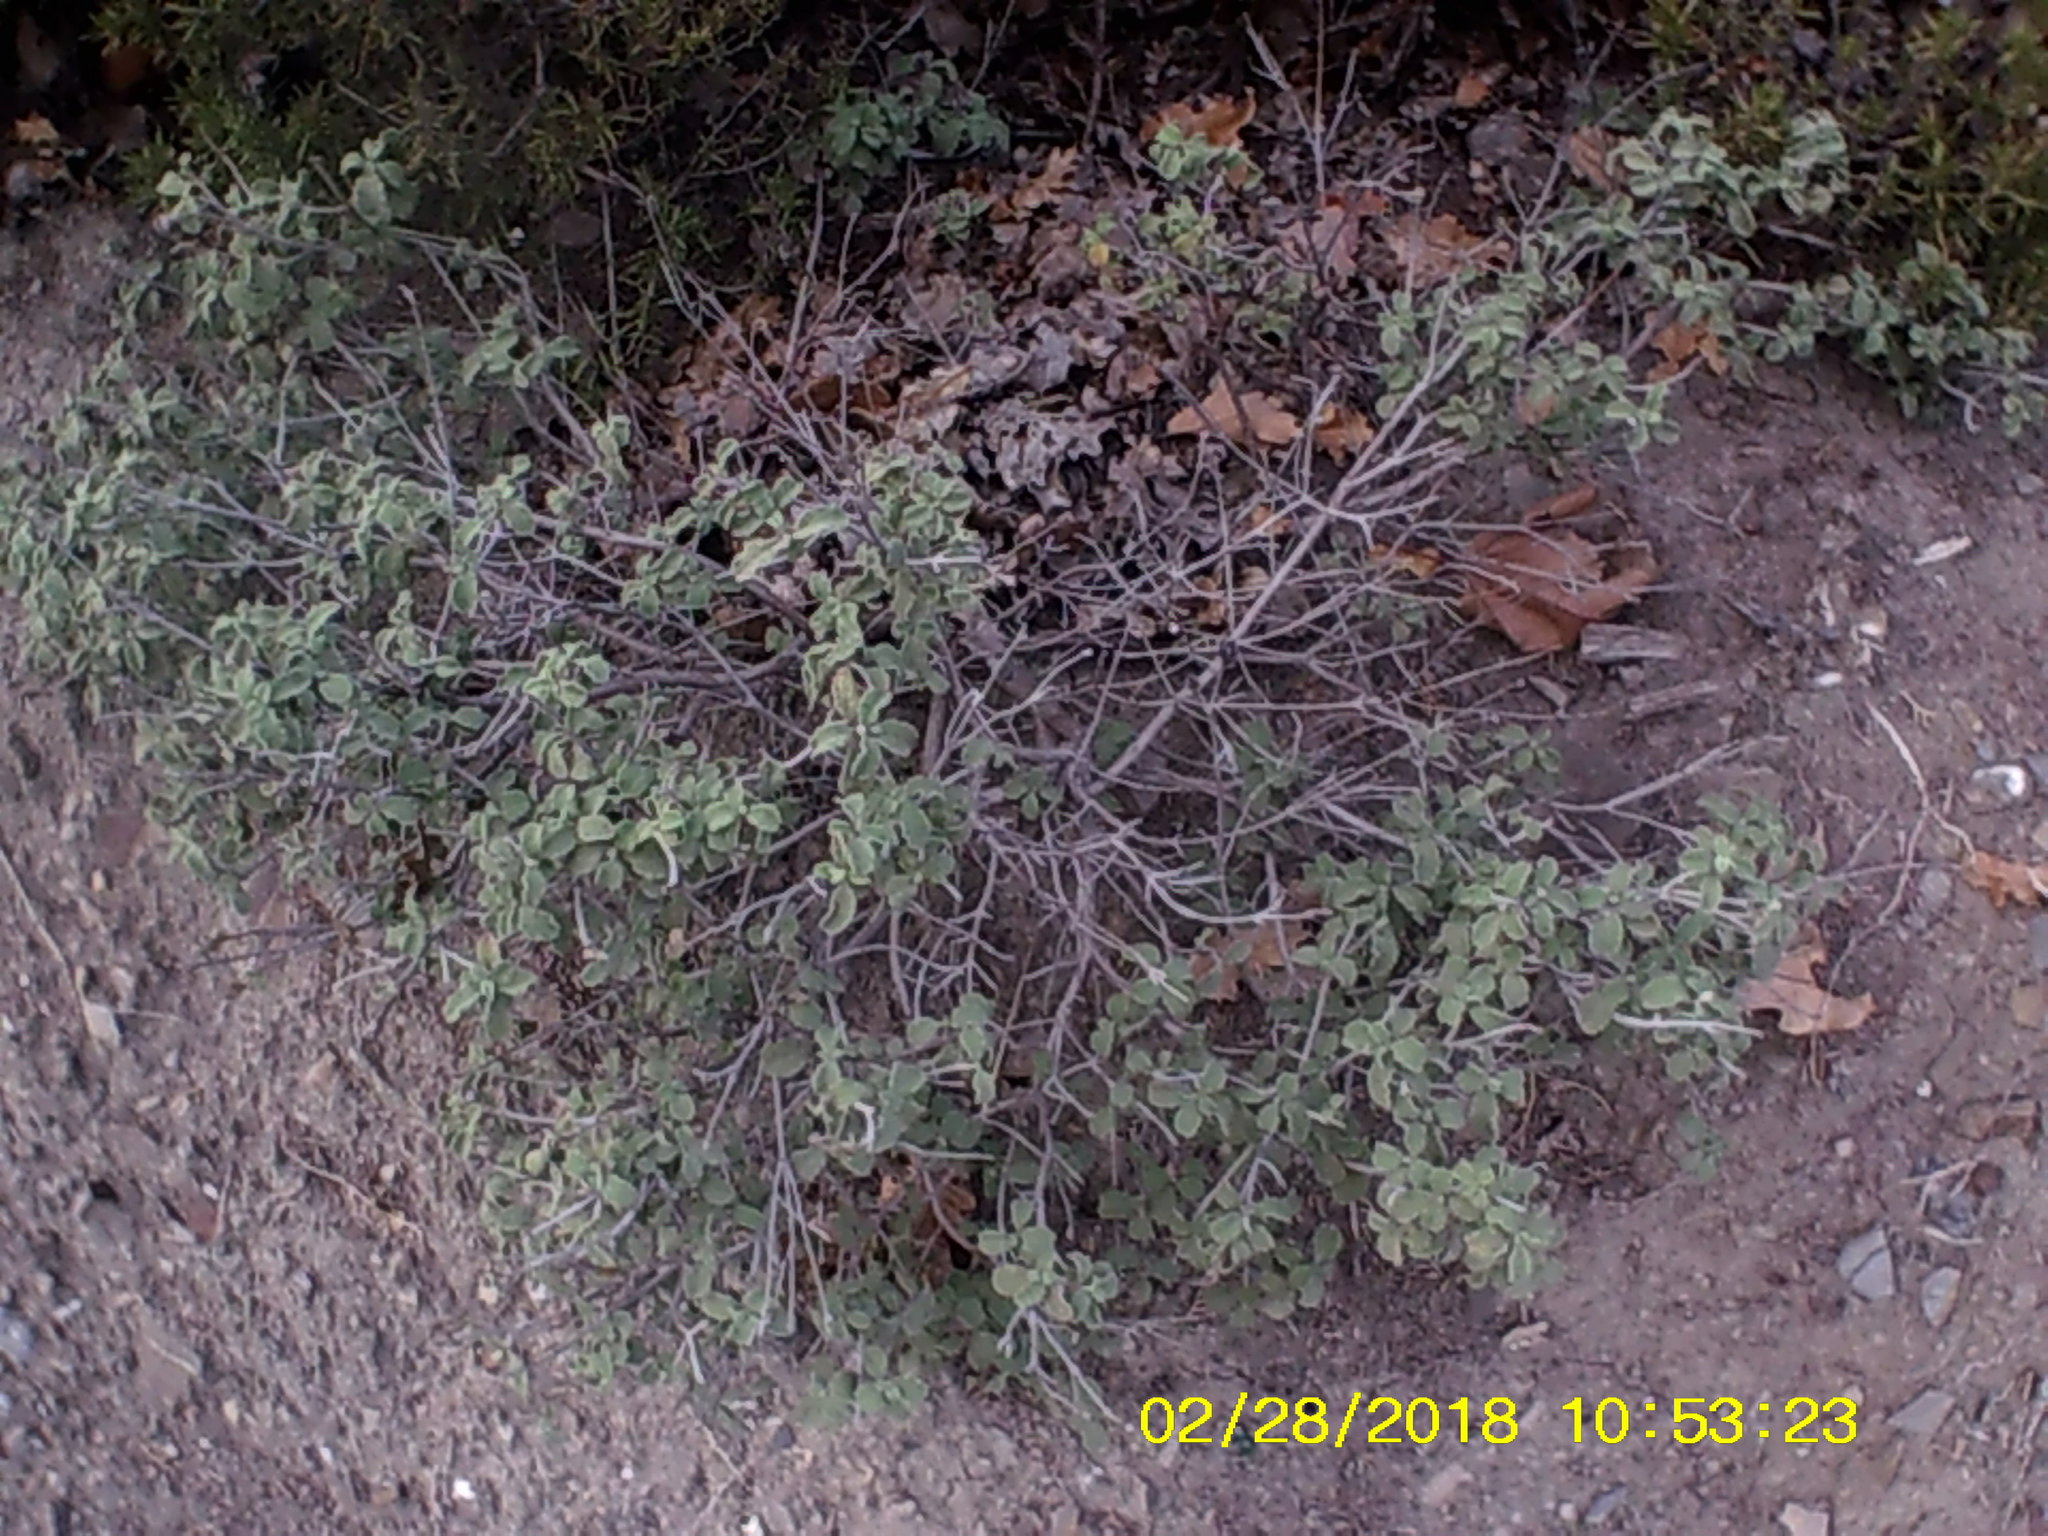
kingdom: Plantae
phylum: Tracheophyta
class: Magnoliopsida
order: Malvales
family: Cistaceae
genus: Cistus
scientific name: Cistus tauricus
